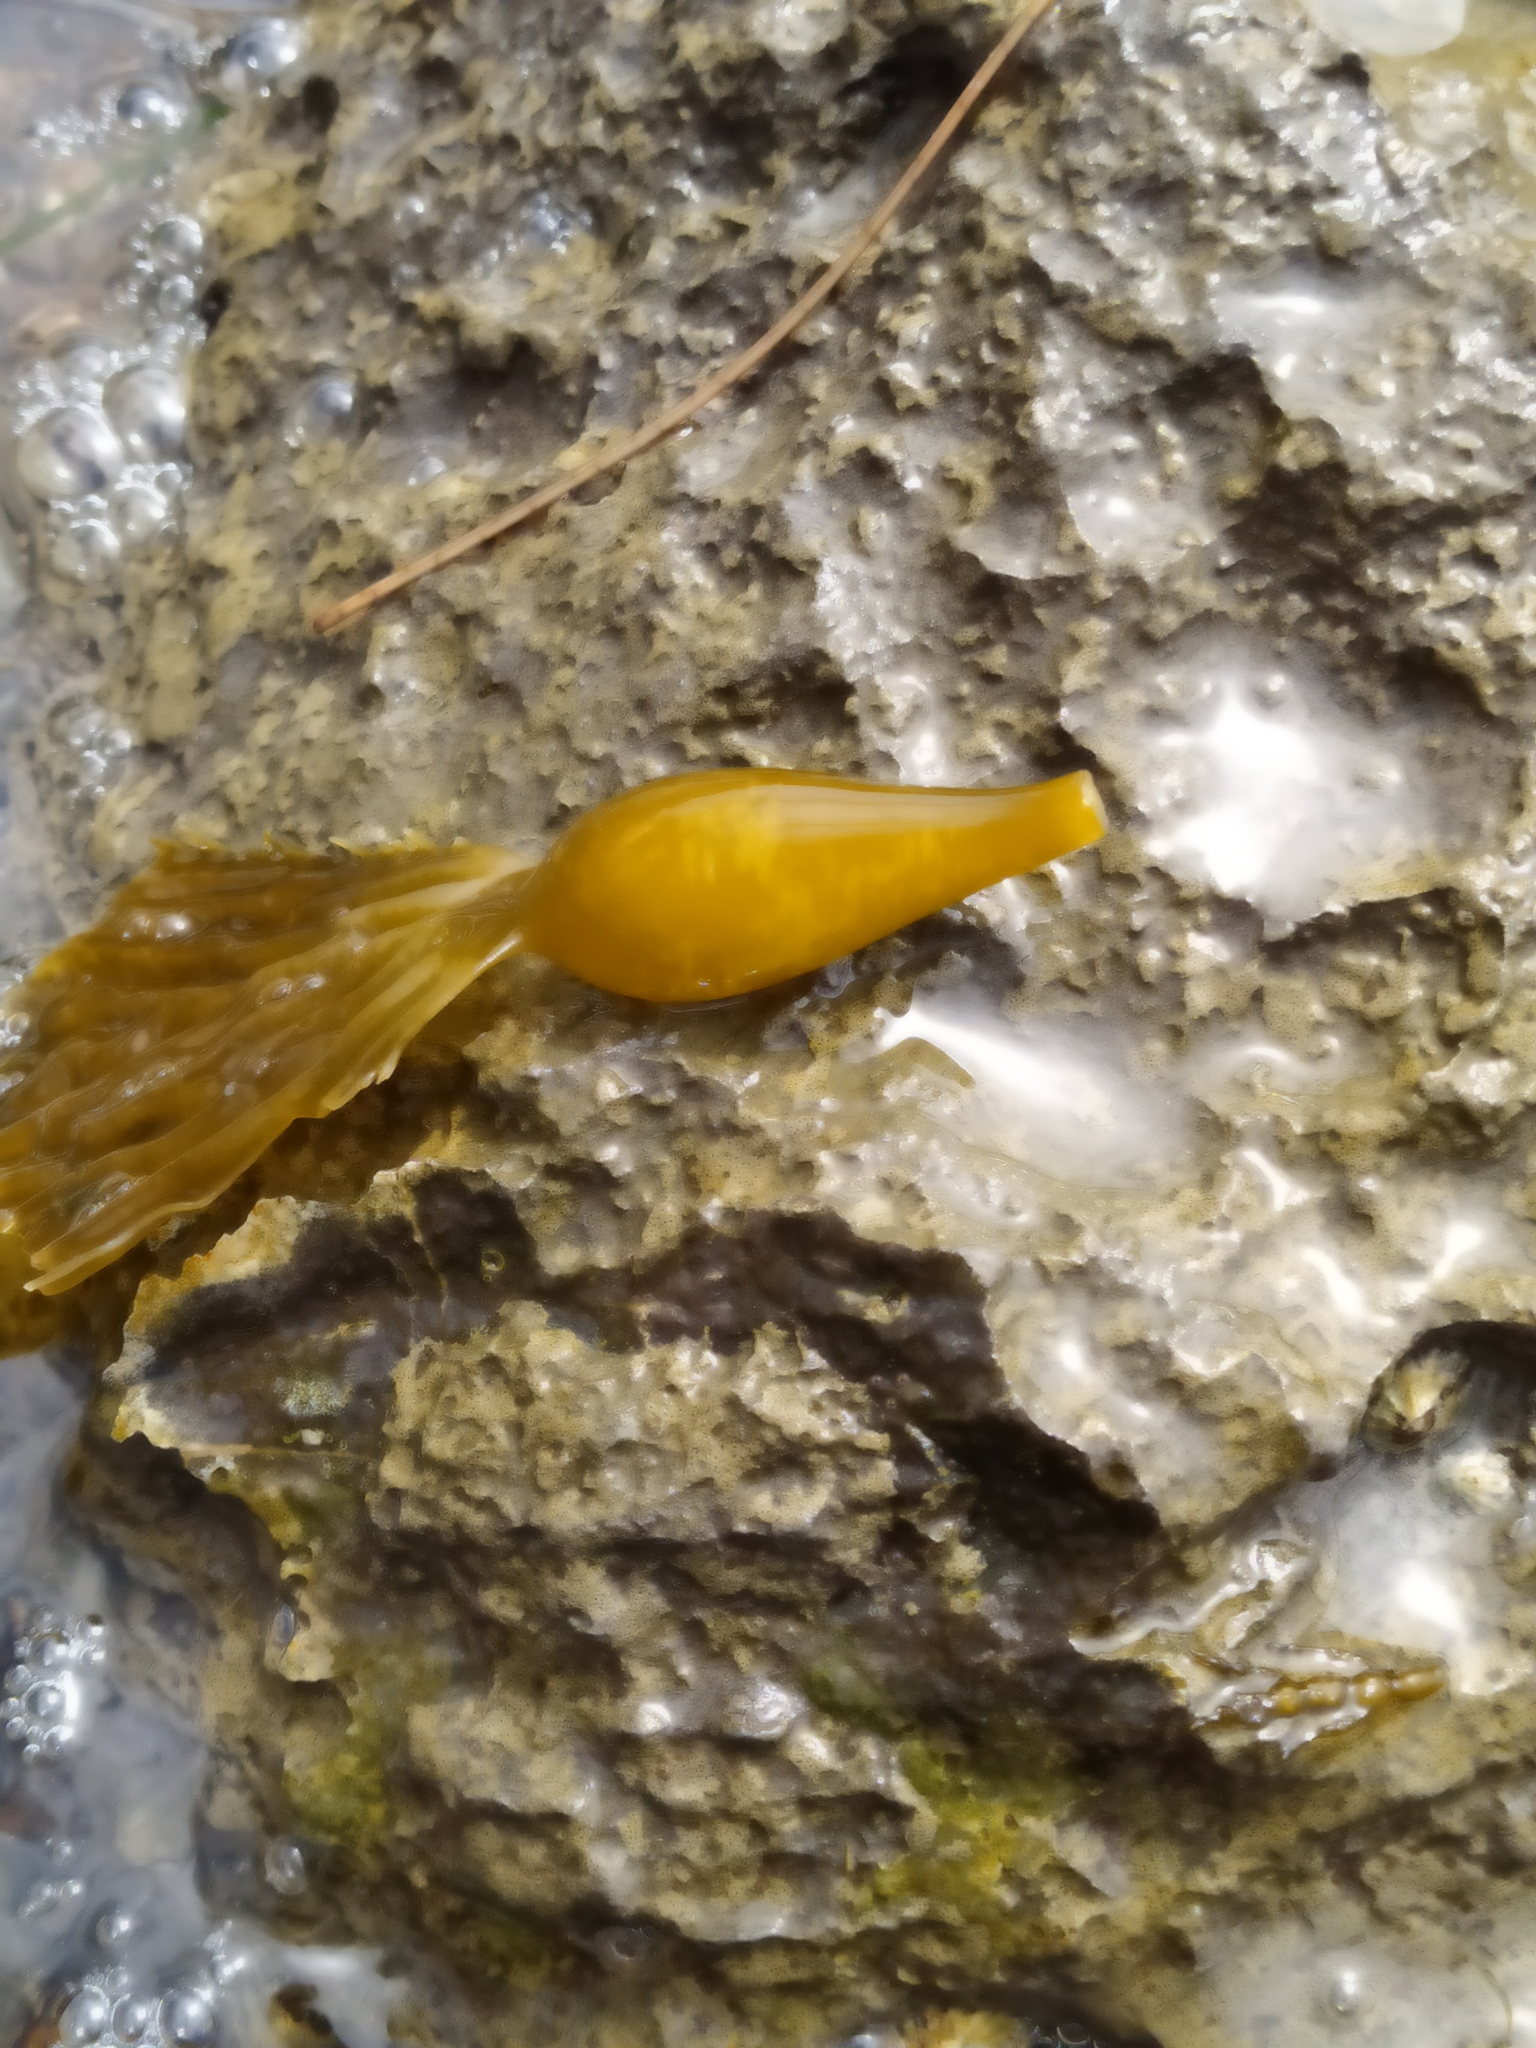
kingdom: Chromista
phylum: Ochrophyta
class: Phaeophyceae
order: Laminariales
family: Laminariaceae
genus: Macrocystis
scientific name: Macrocystis pyrifera
